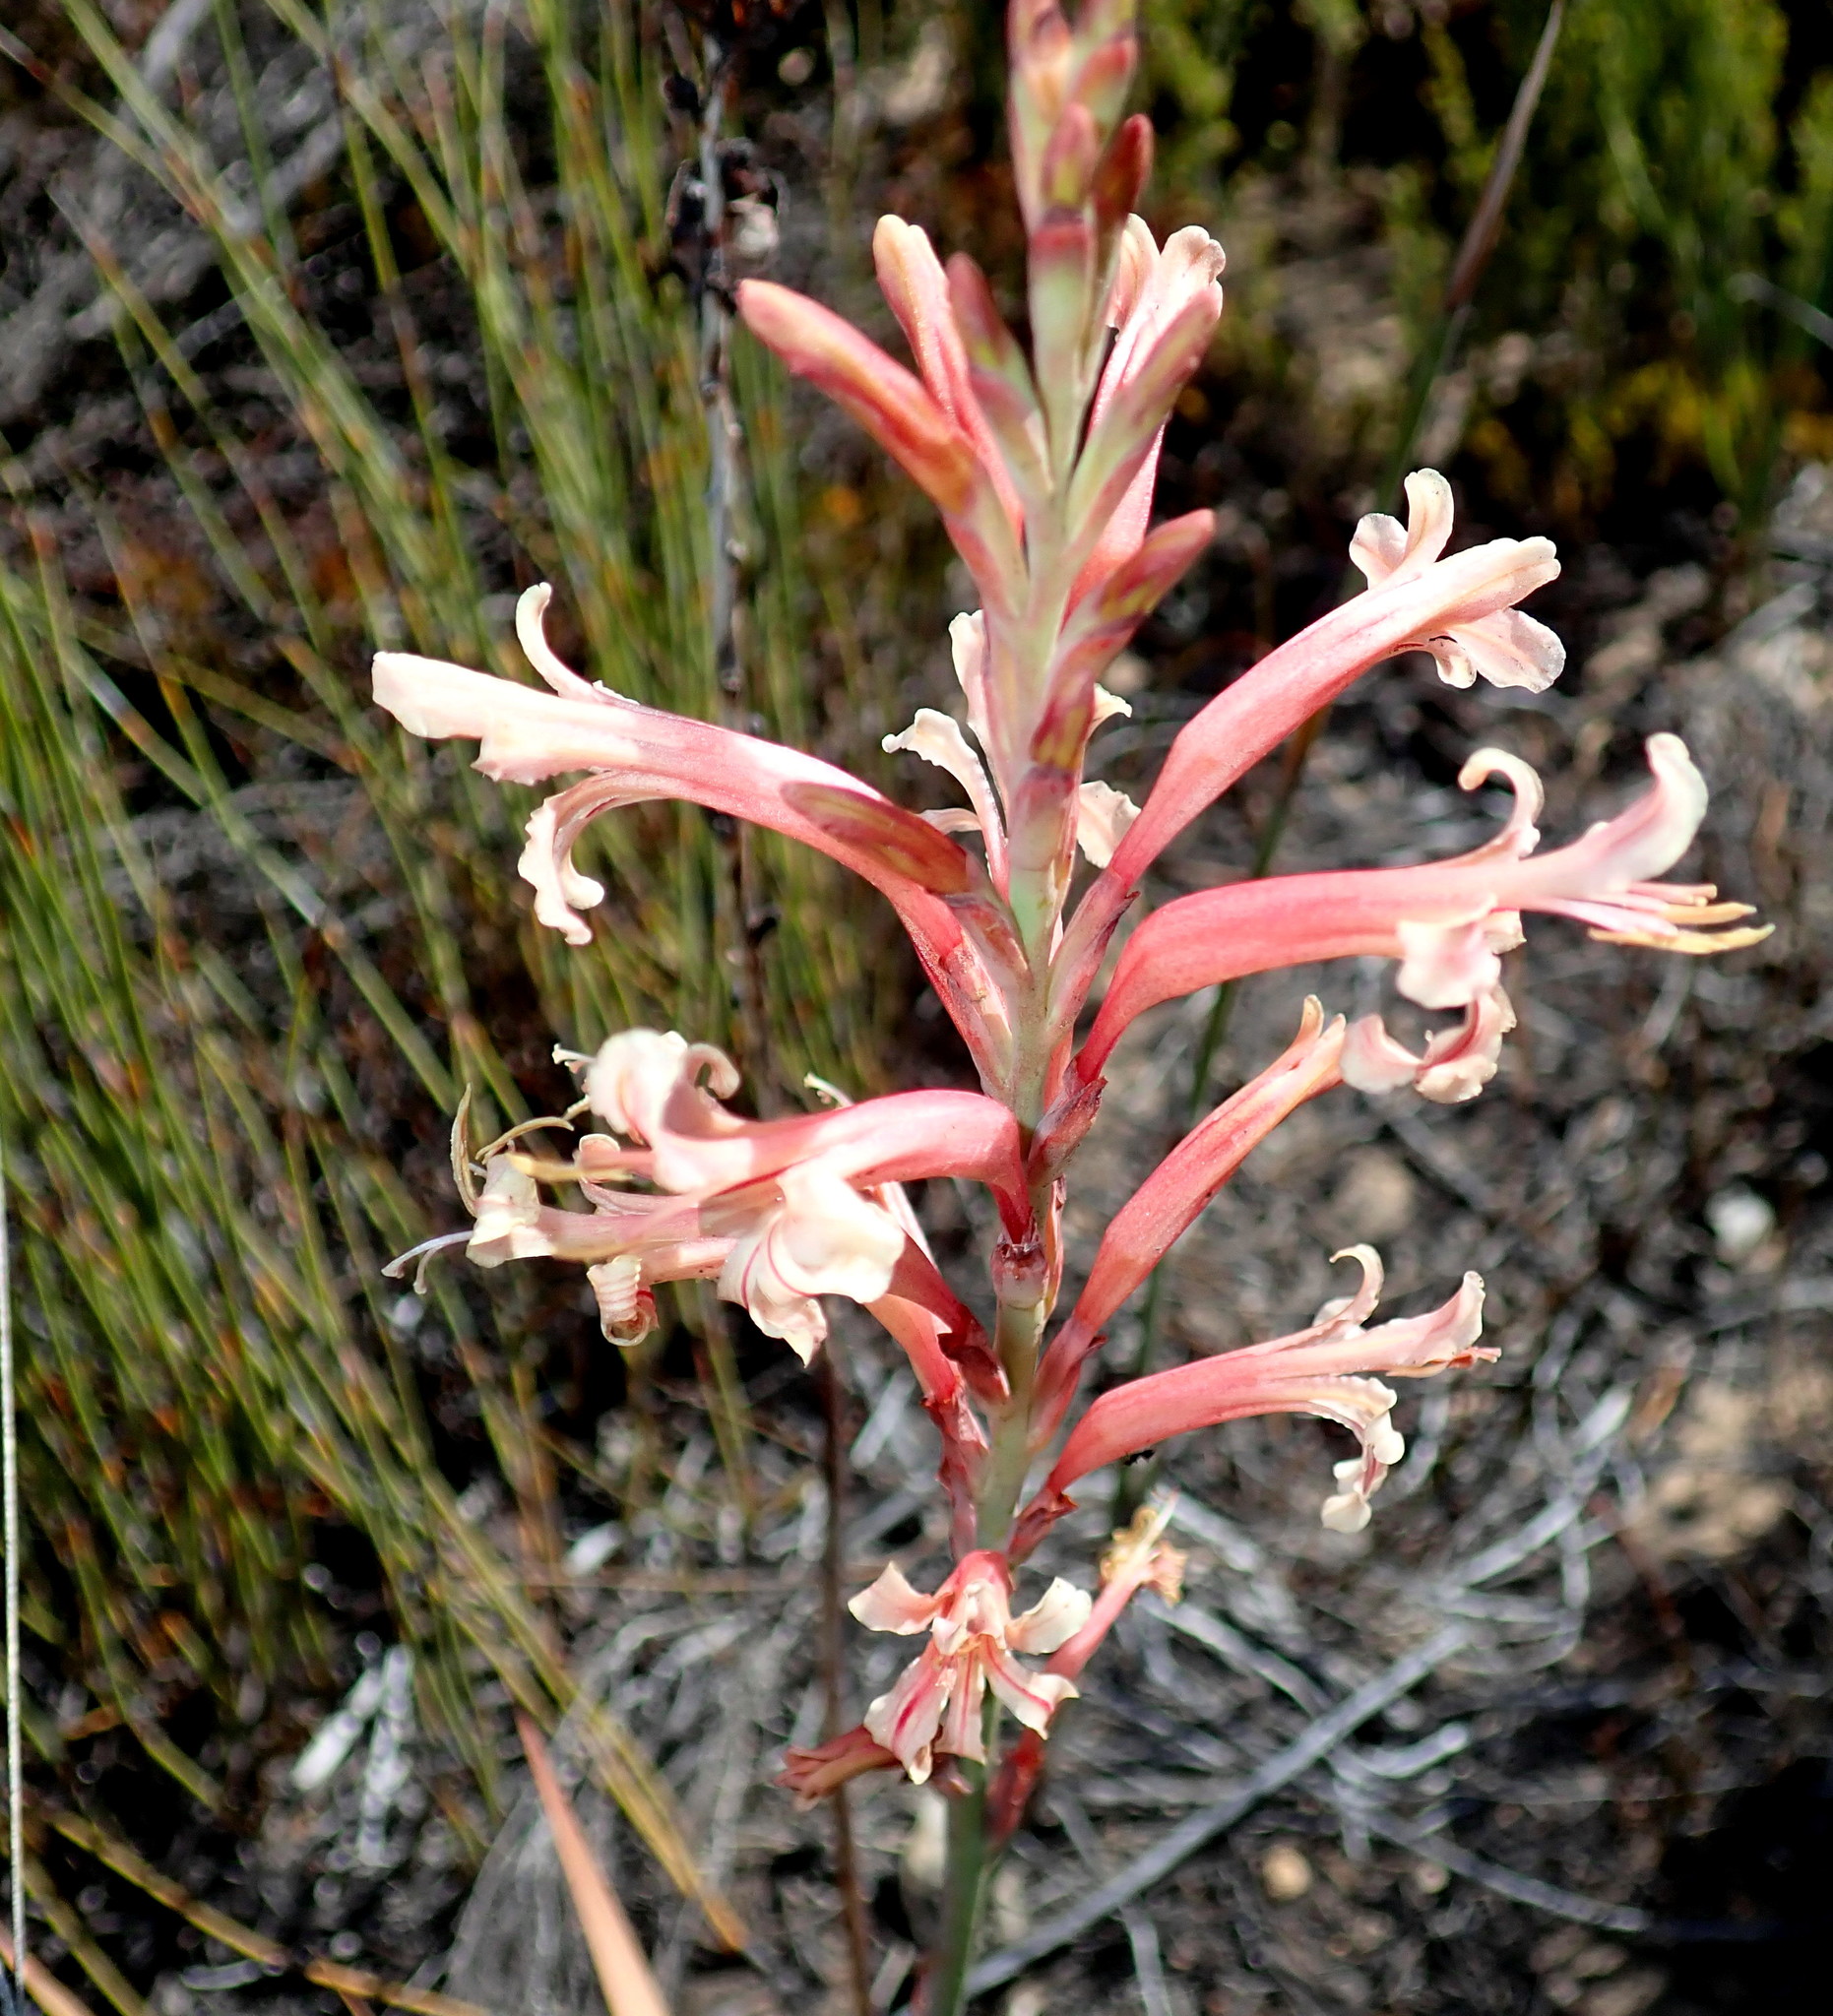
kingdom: Plantae
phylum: Tracheophyta
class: Liliopsida
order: Asparagales
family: Iridaceae
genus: Tritoniopsis
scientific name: Tritoniopsis antholyza
